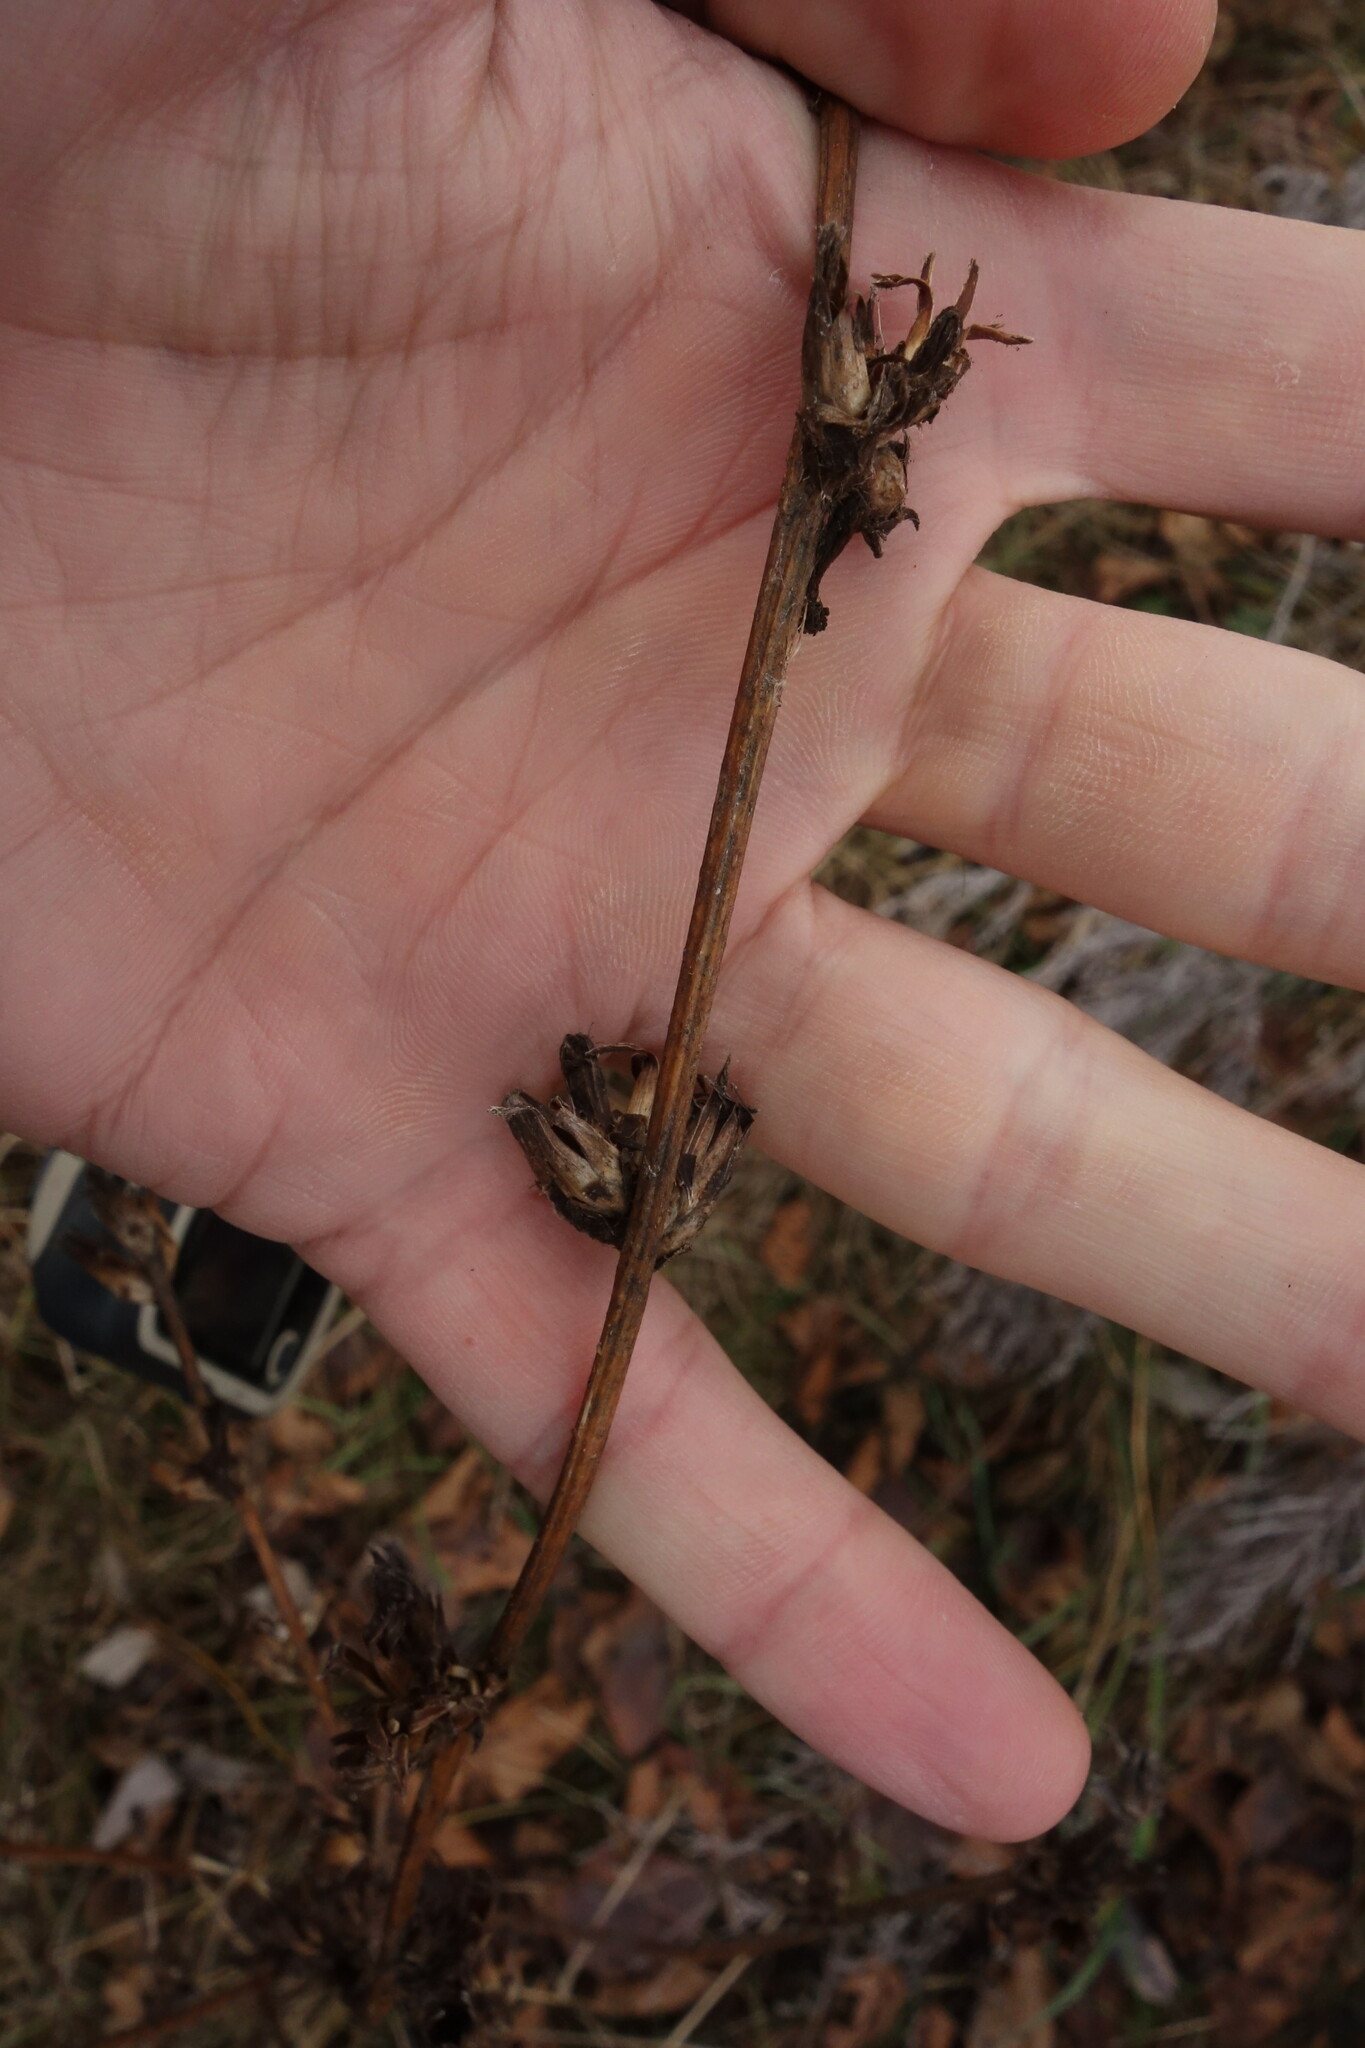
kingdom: Plantae
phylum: Tracheophyta
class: Magnoliopsida
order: Asterales
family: Asteraceae
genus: Cichorium
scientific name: Cichorium intybus
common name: Chicory
